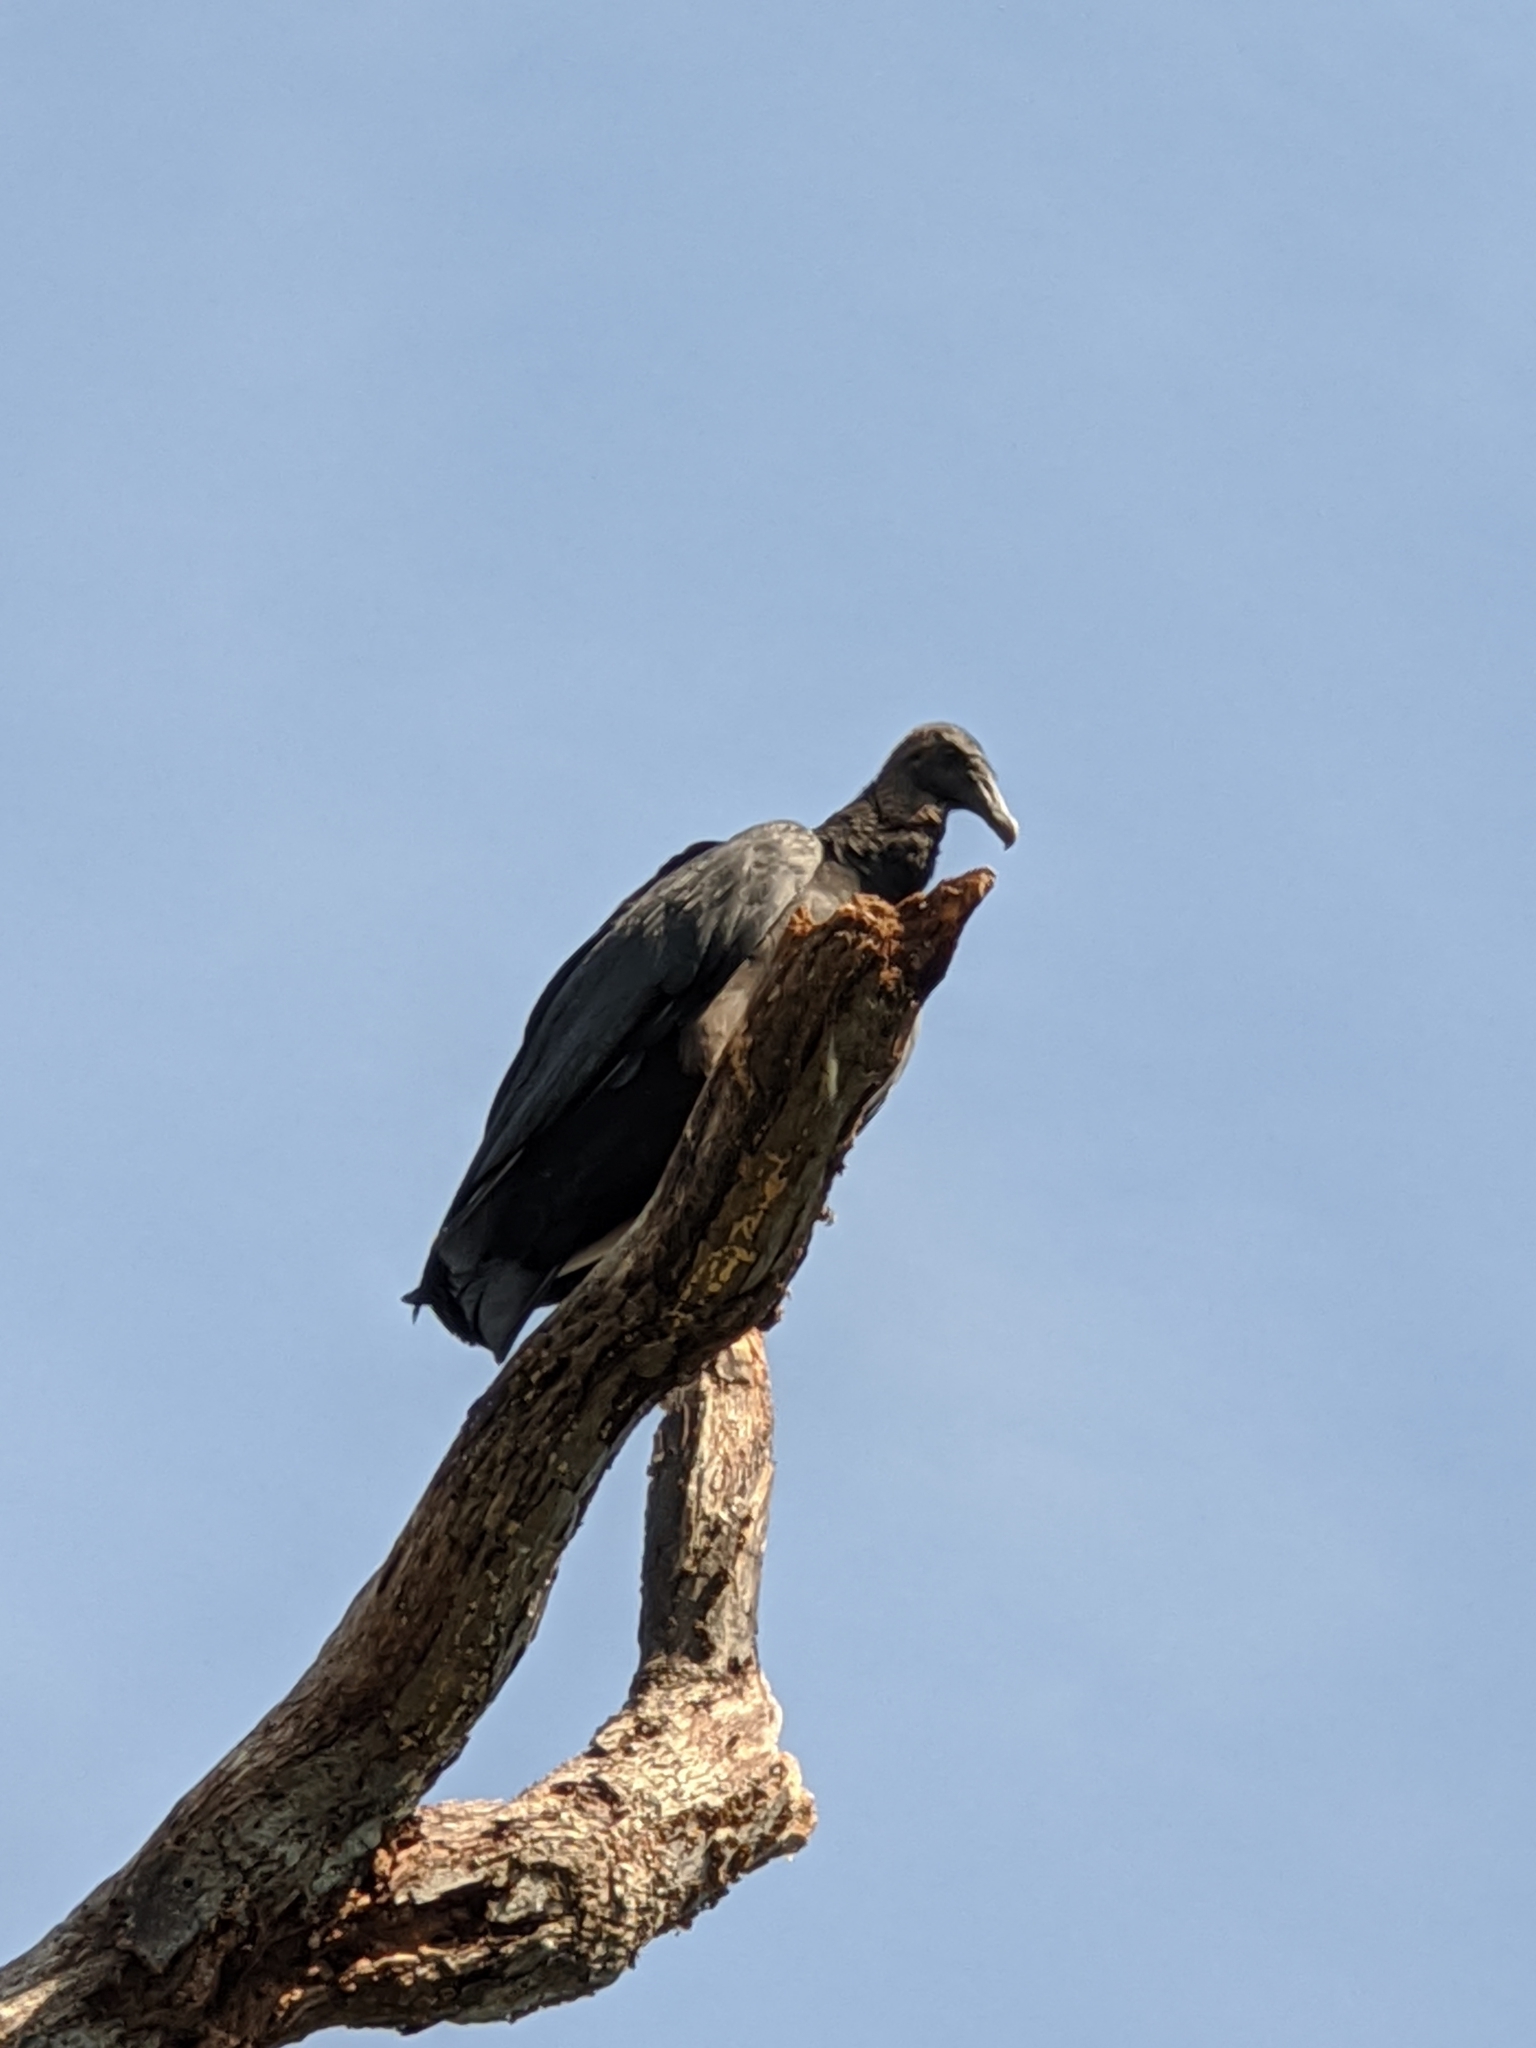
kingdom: Animalia
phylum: Chordata
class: Aves
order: Accipitriformes
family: Cathartidae
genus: Coragyps
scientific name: Coragyps atratus
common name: Black vulture
